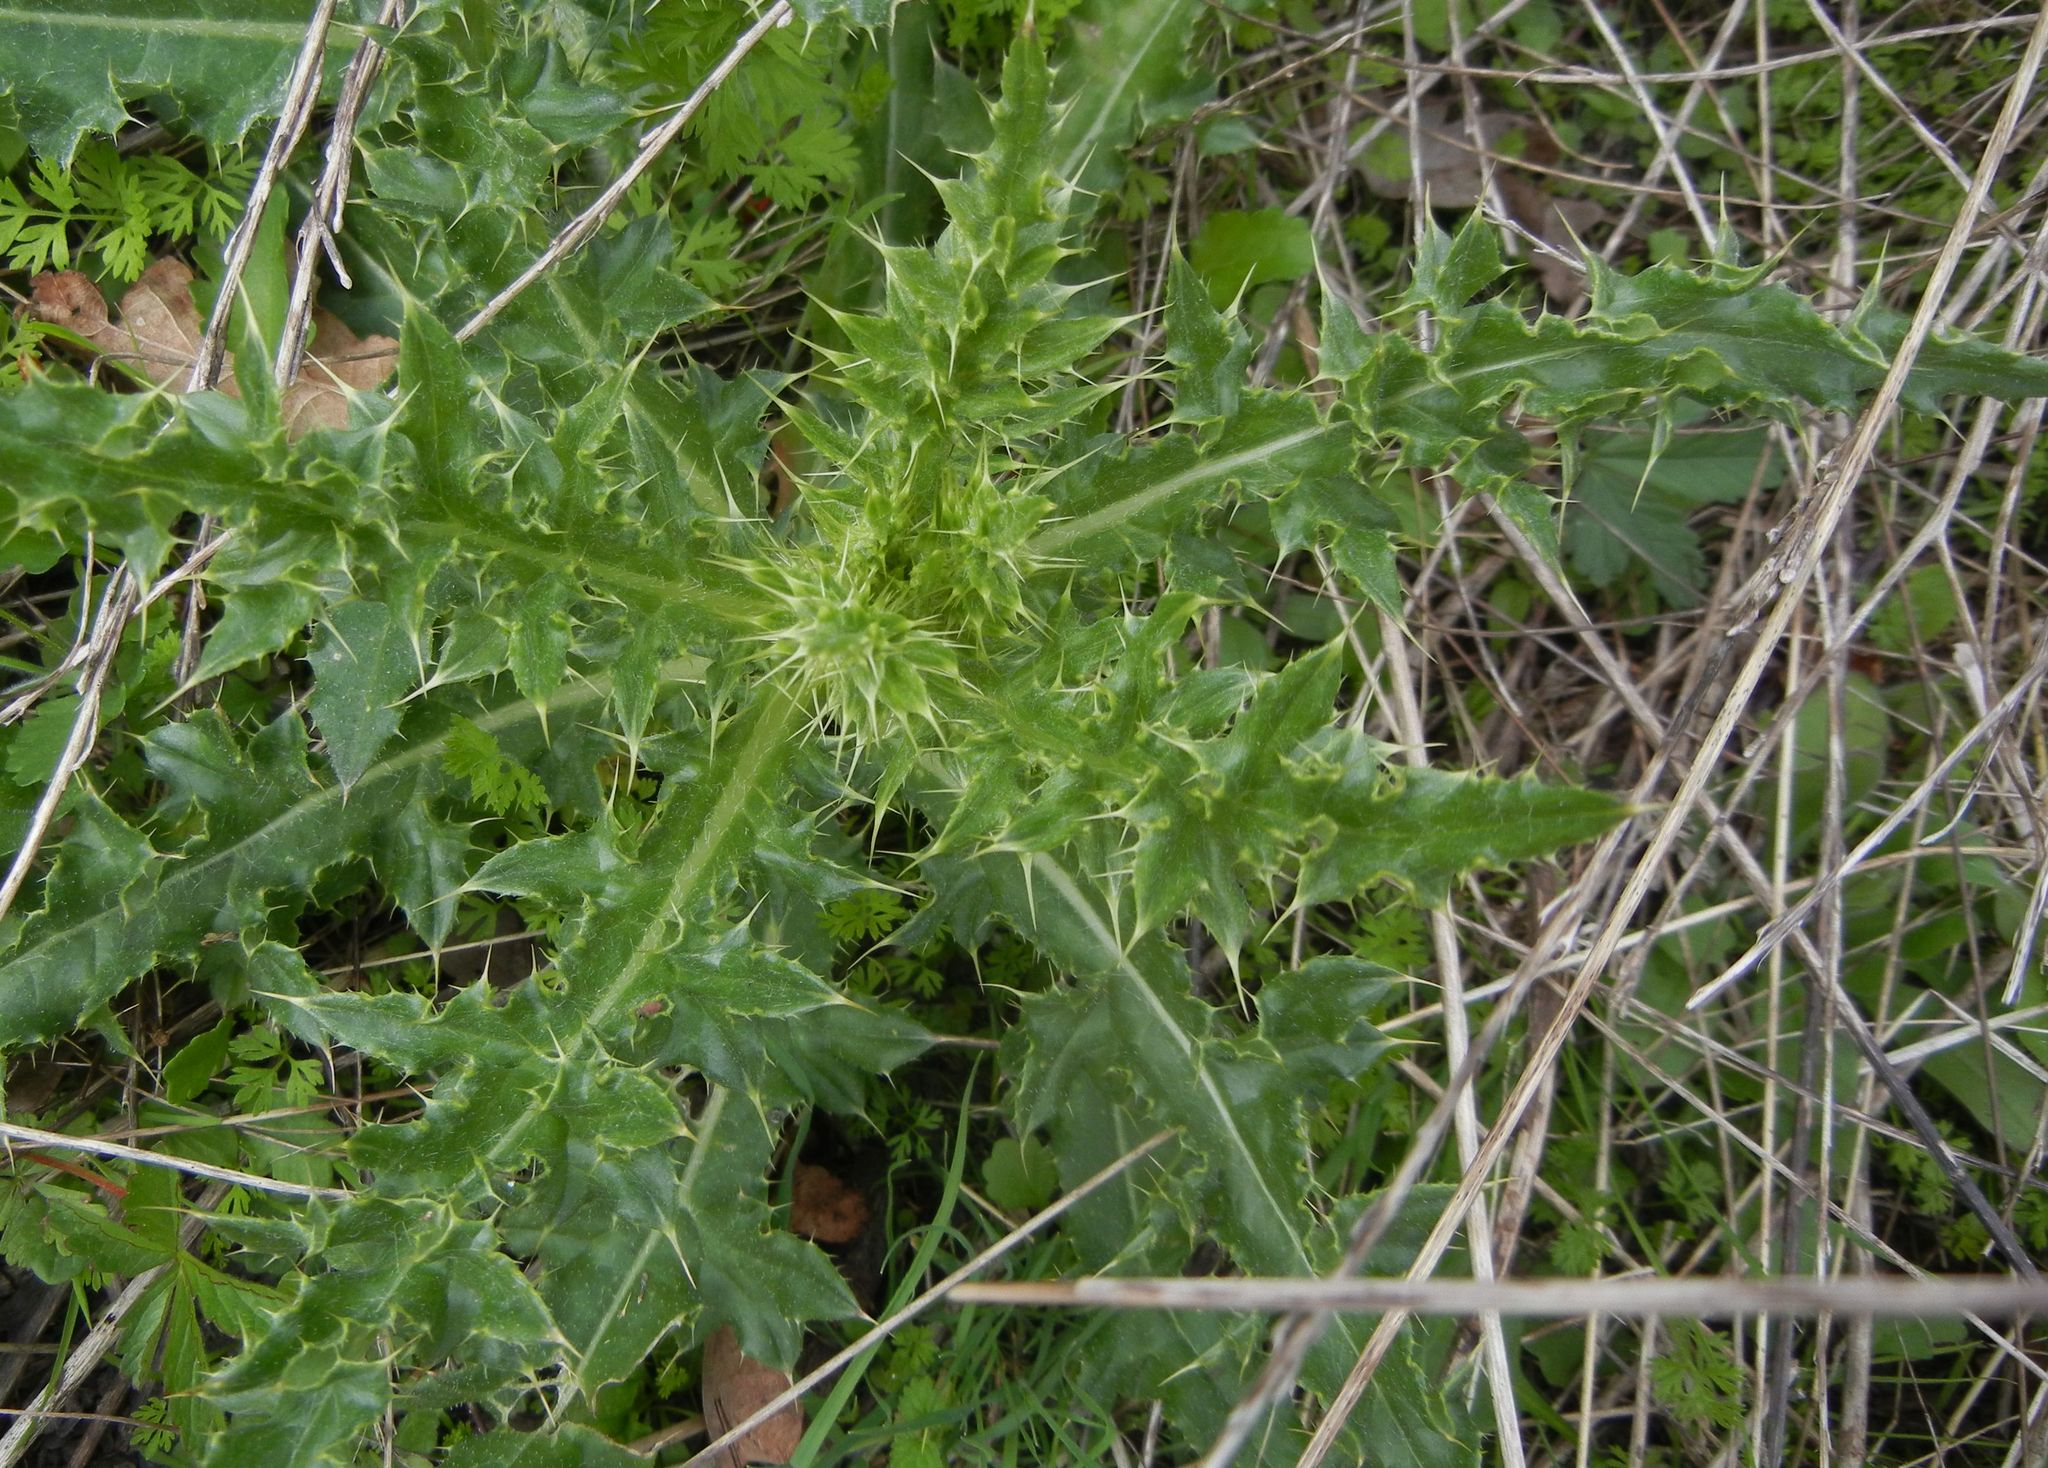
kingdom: Plantae
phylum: Tracheophyta
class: Magnoliopsida
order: Asterales
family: Asteraceae
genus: Cirsium
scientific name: Cirsium arvense
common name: Creeping thistle
